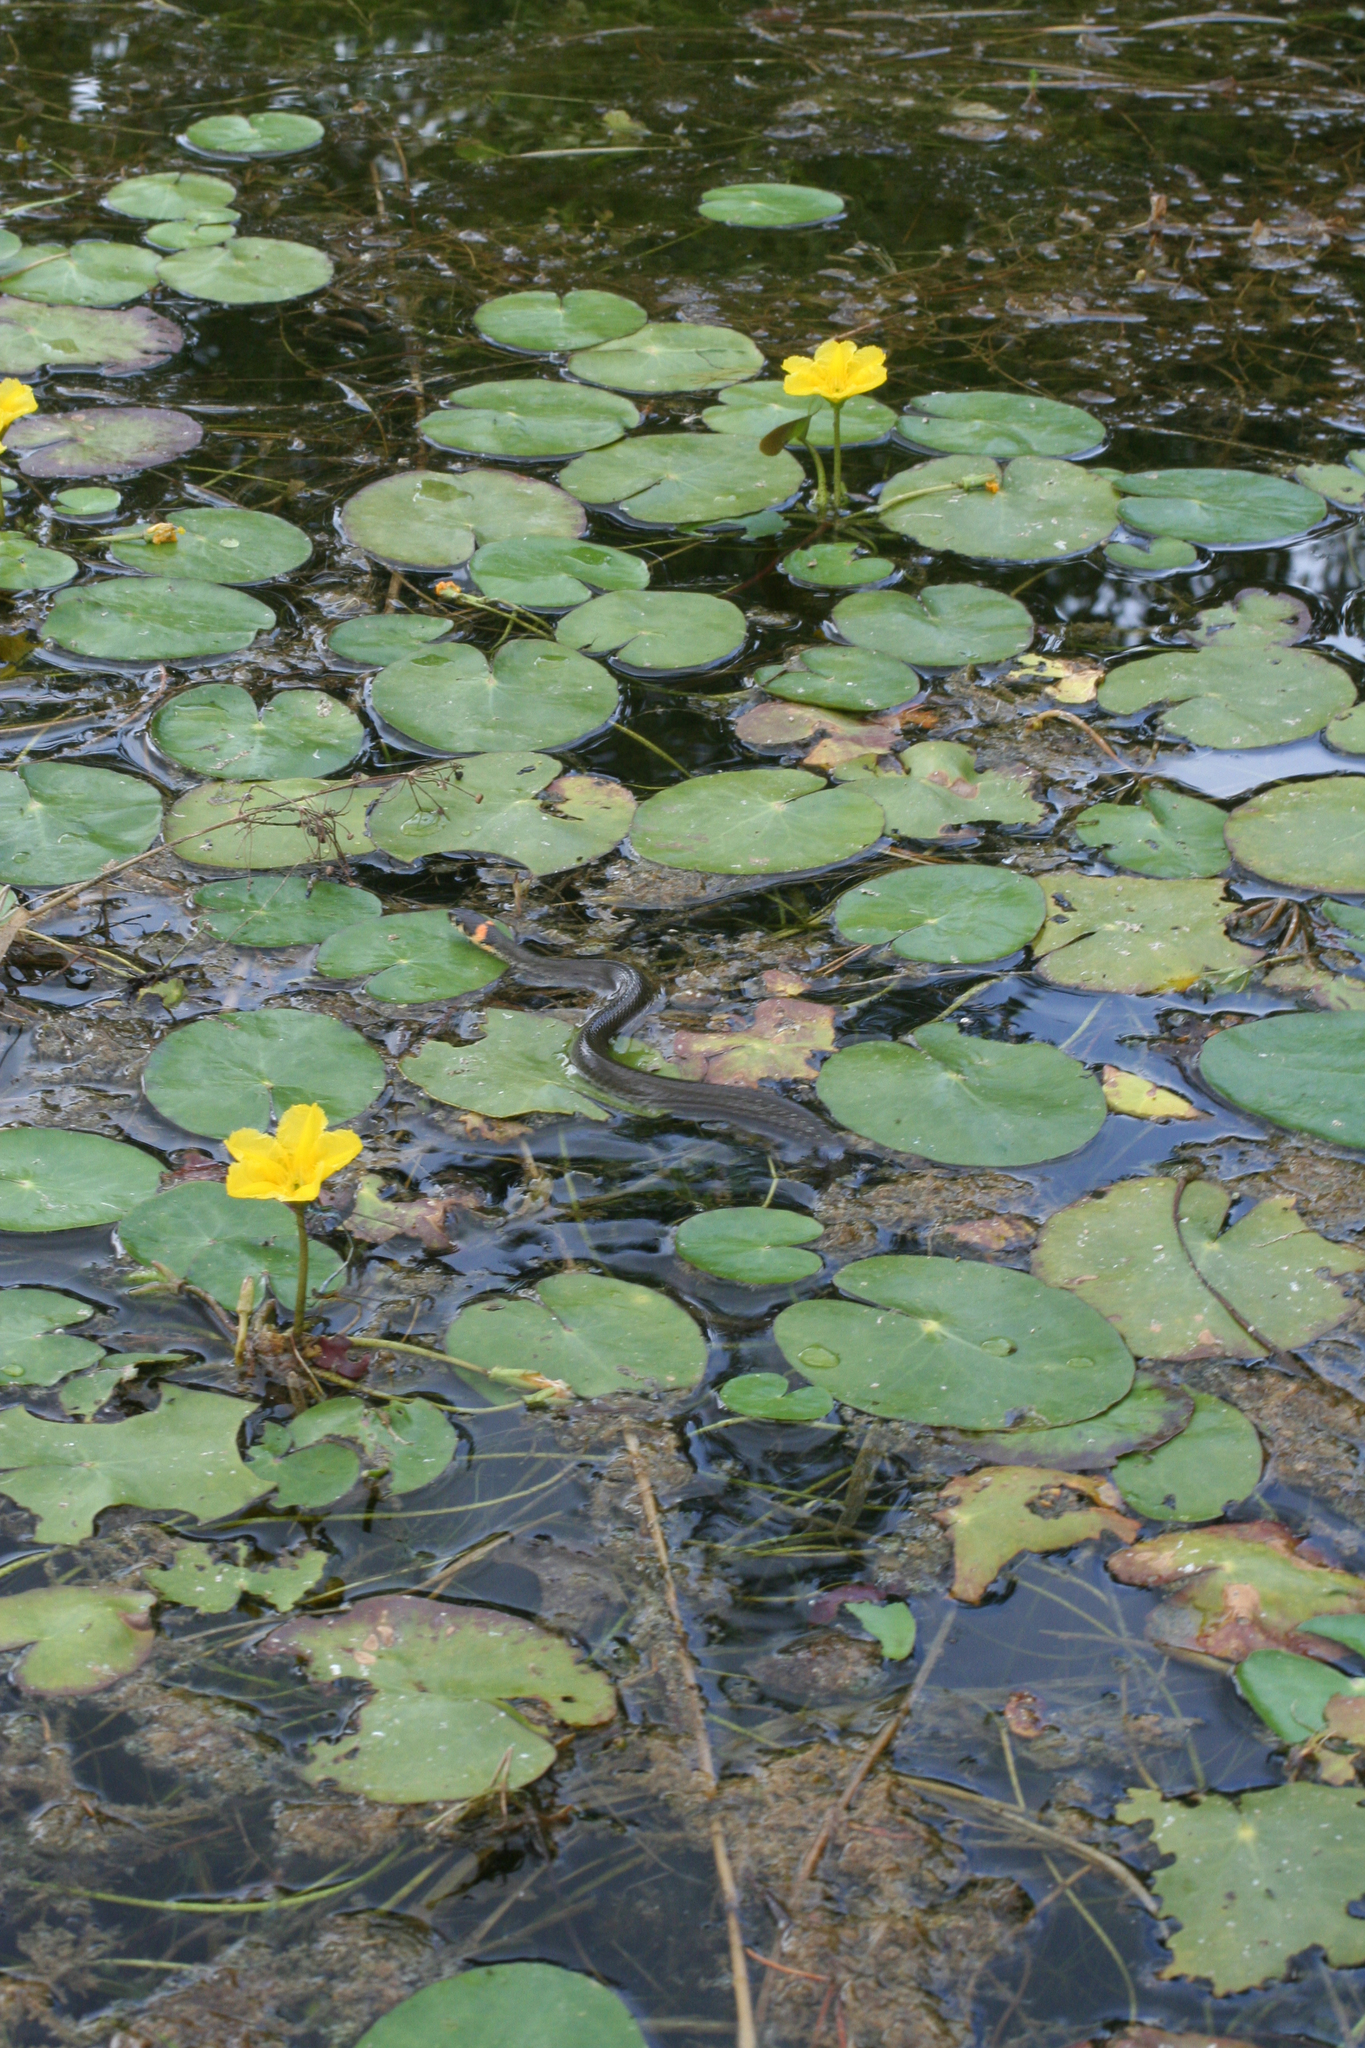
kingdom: Plantae
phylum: Tracheophyta
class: Magnoliopsida
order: Asterales
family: Menyanthaceae
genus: Nymphoides
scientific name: Nymphoides peltata
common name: Fringed water-lily
